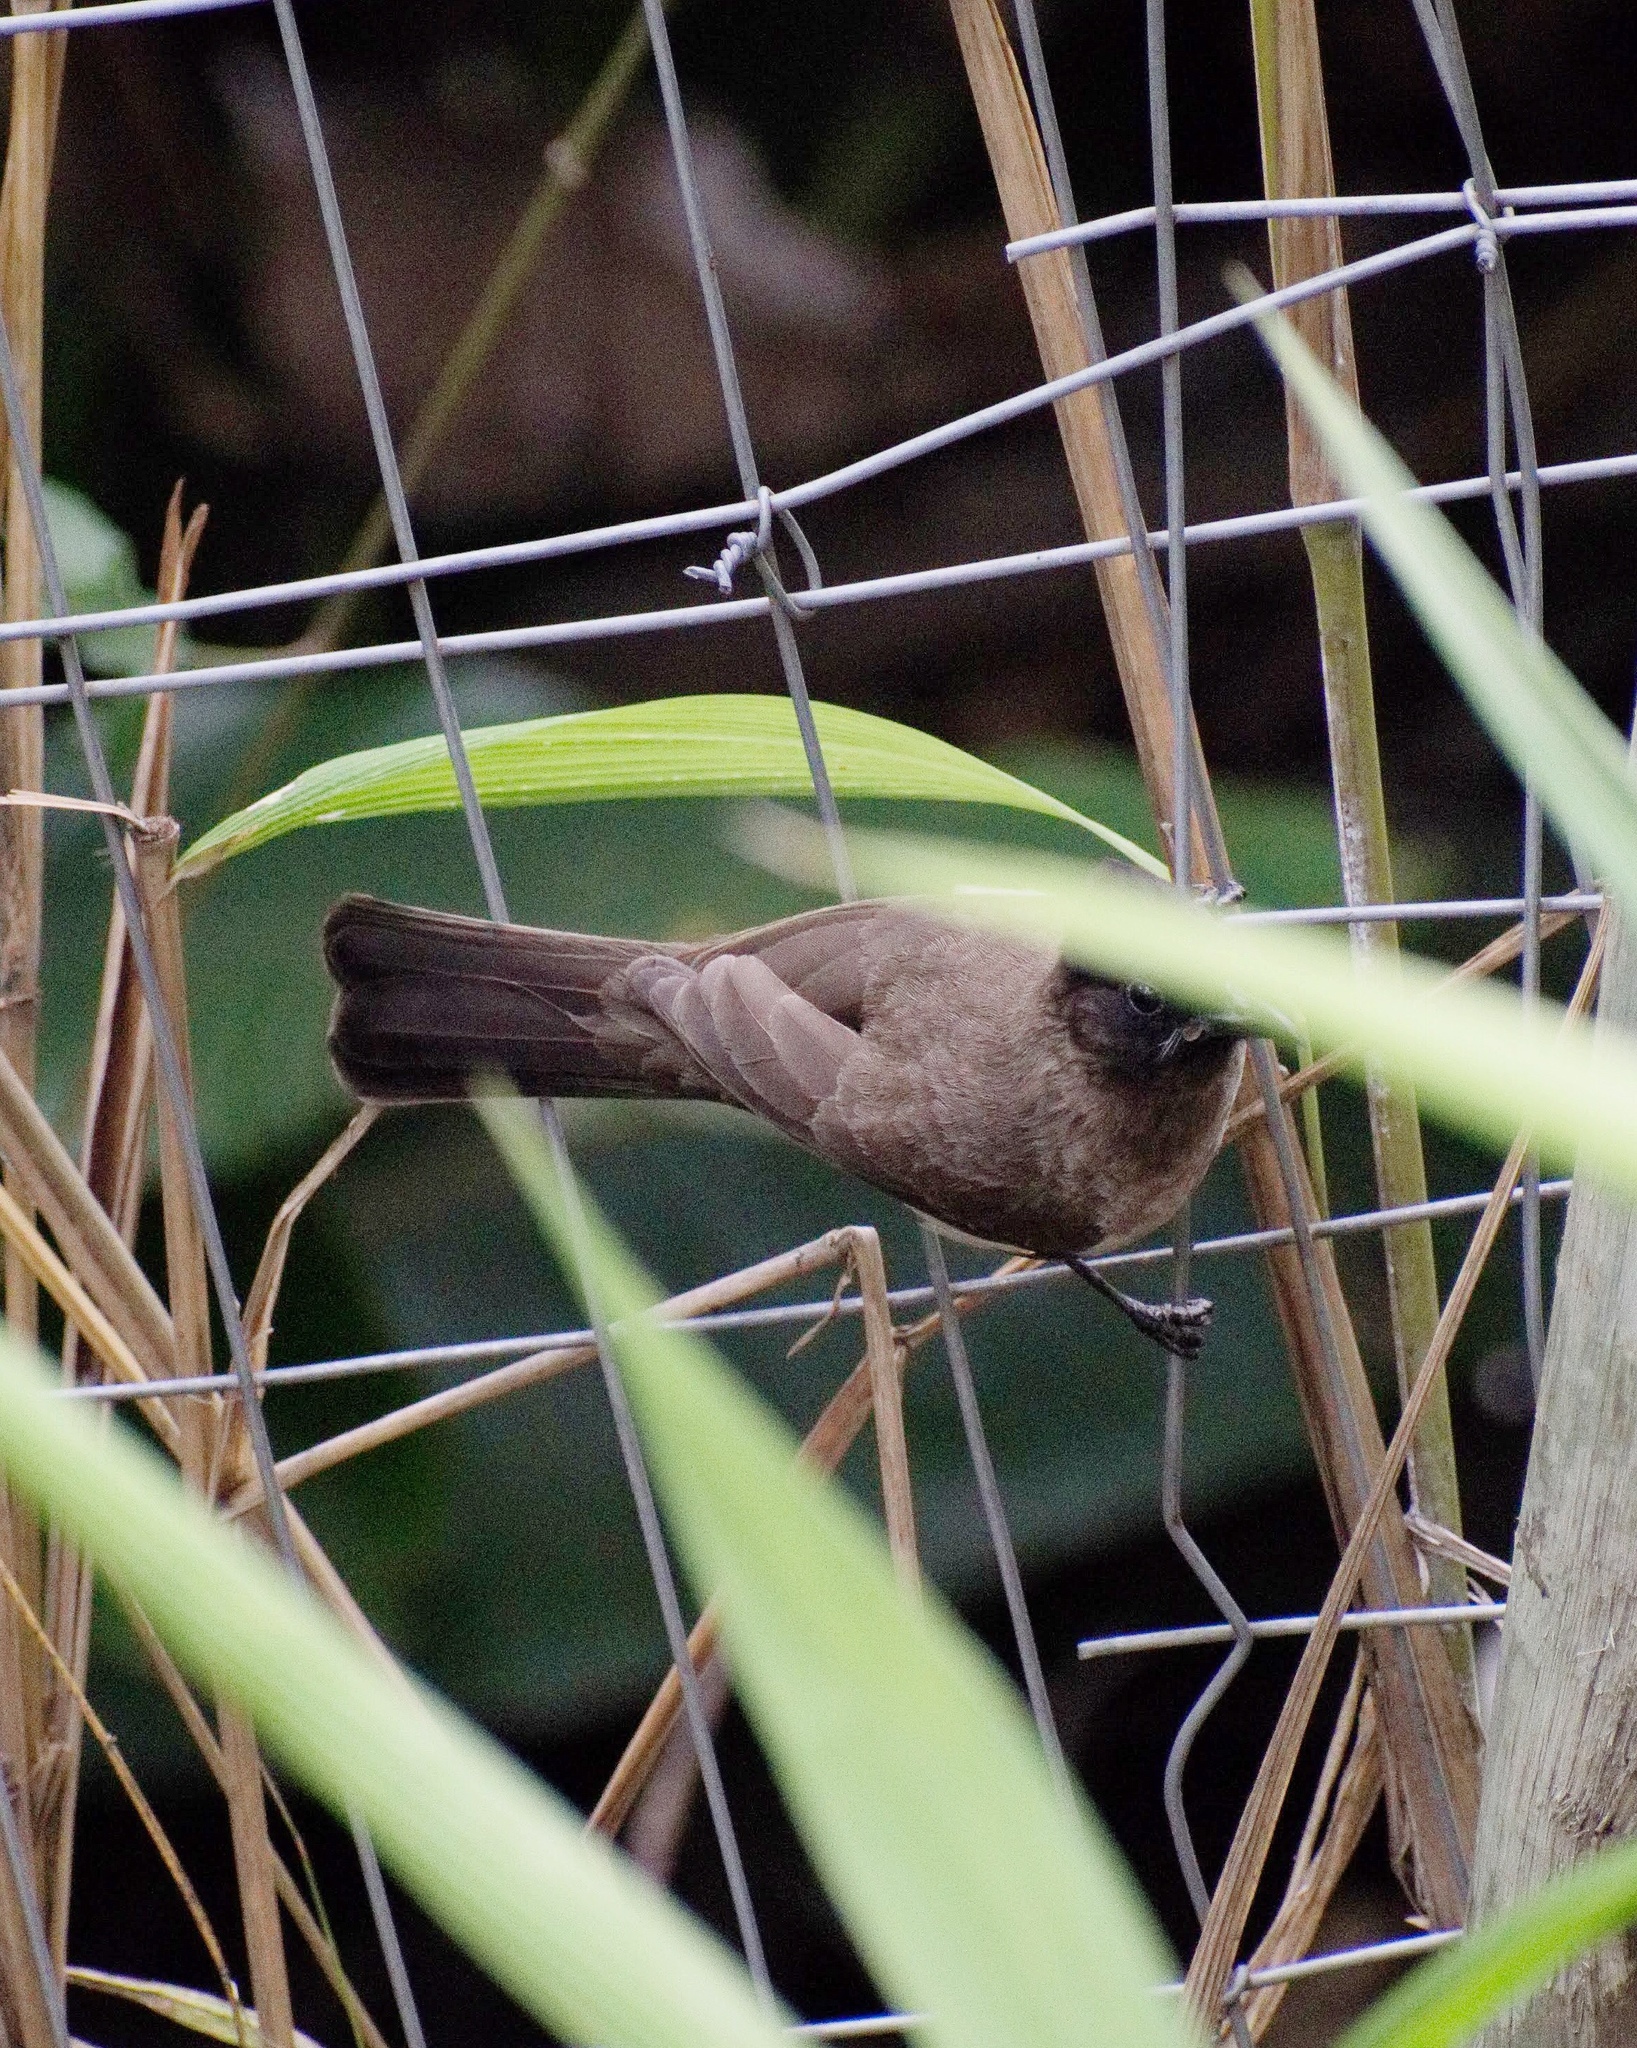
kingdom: Animalia
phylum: Chordata
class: Aves
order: Passeriformes
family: Pycnonotidae
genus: Pycnonotus
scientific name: Pycnonotus barbatus
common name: Common bulbul
